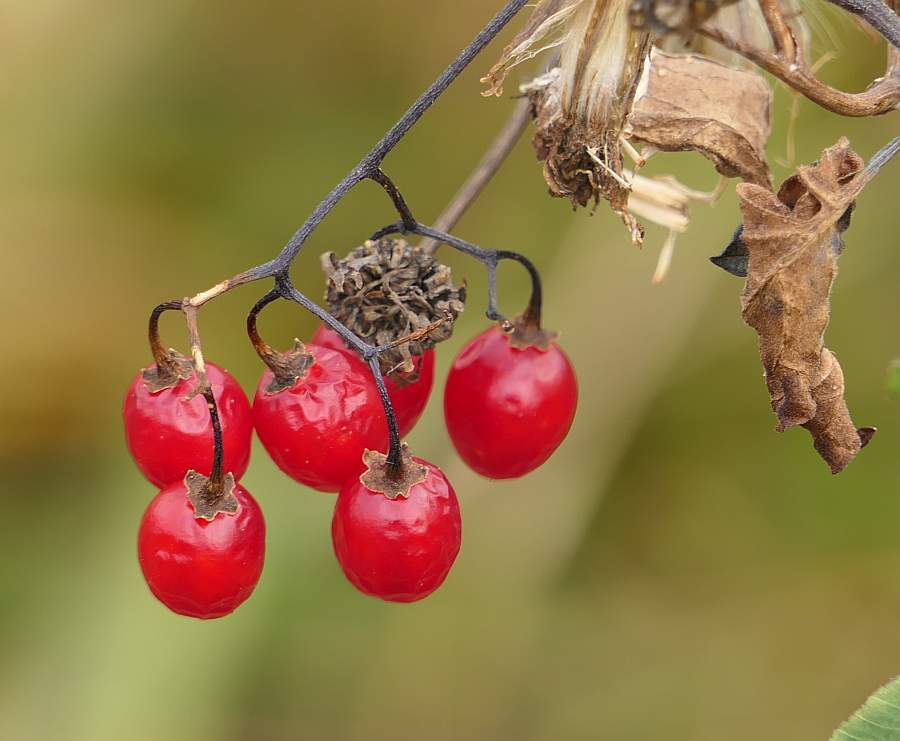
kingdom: Plantae
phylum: Tracheophyta
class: Magnoliopsida
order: Solanales
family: Solanaceae
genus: Solanum
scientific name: Solanum dulcamara
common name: Climbing nightshade
